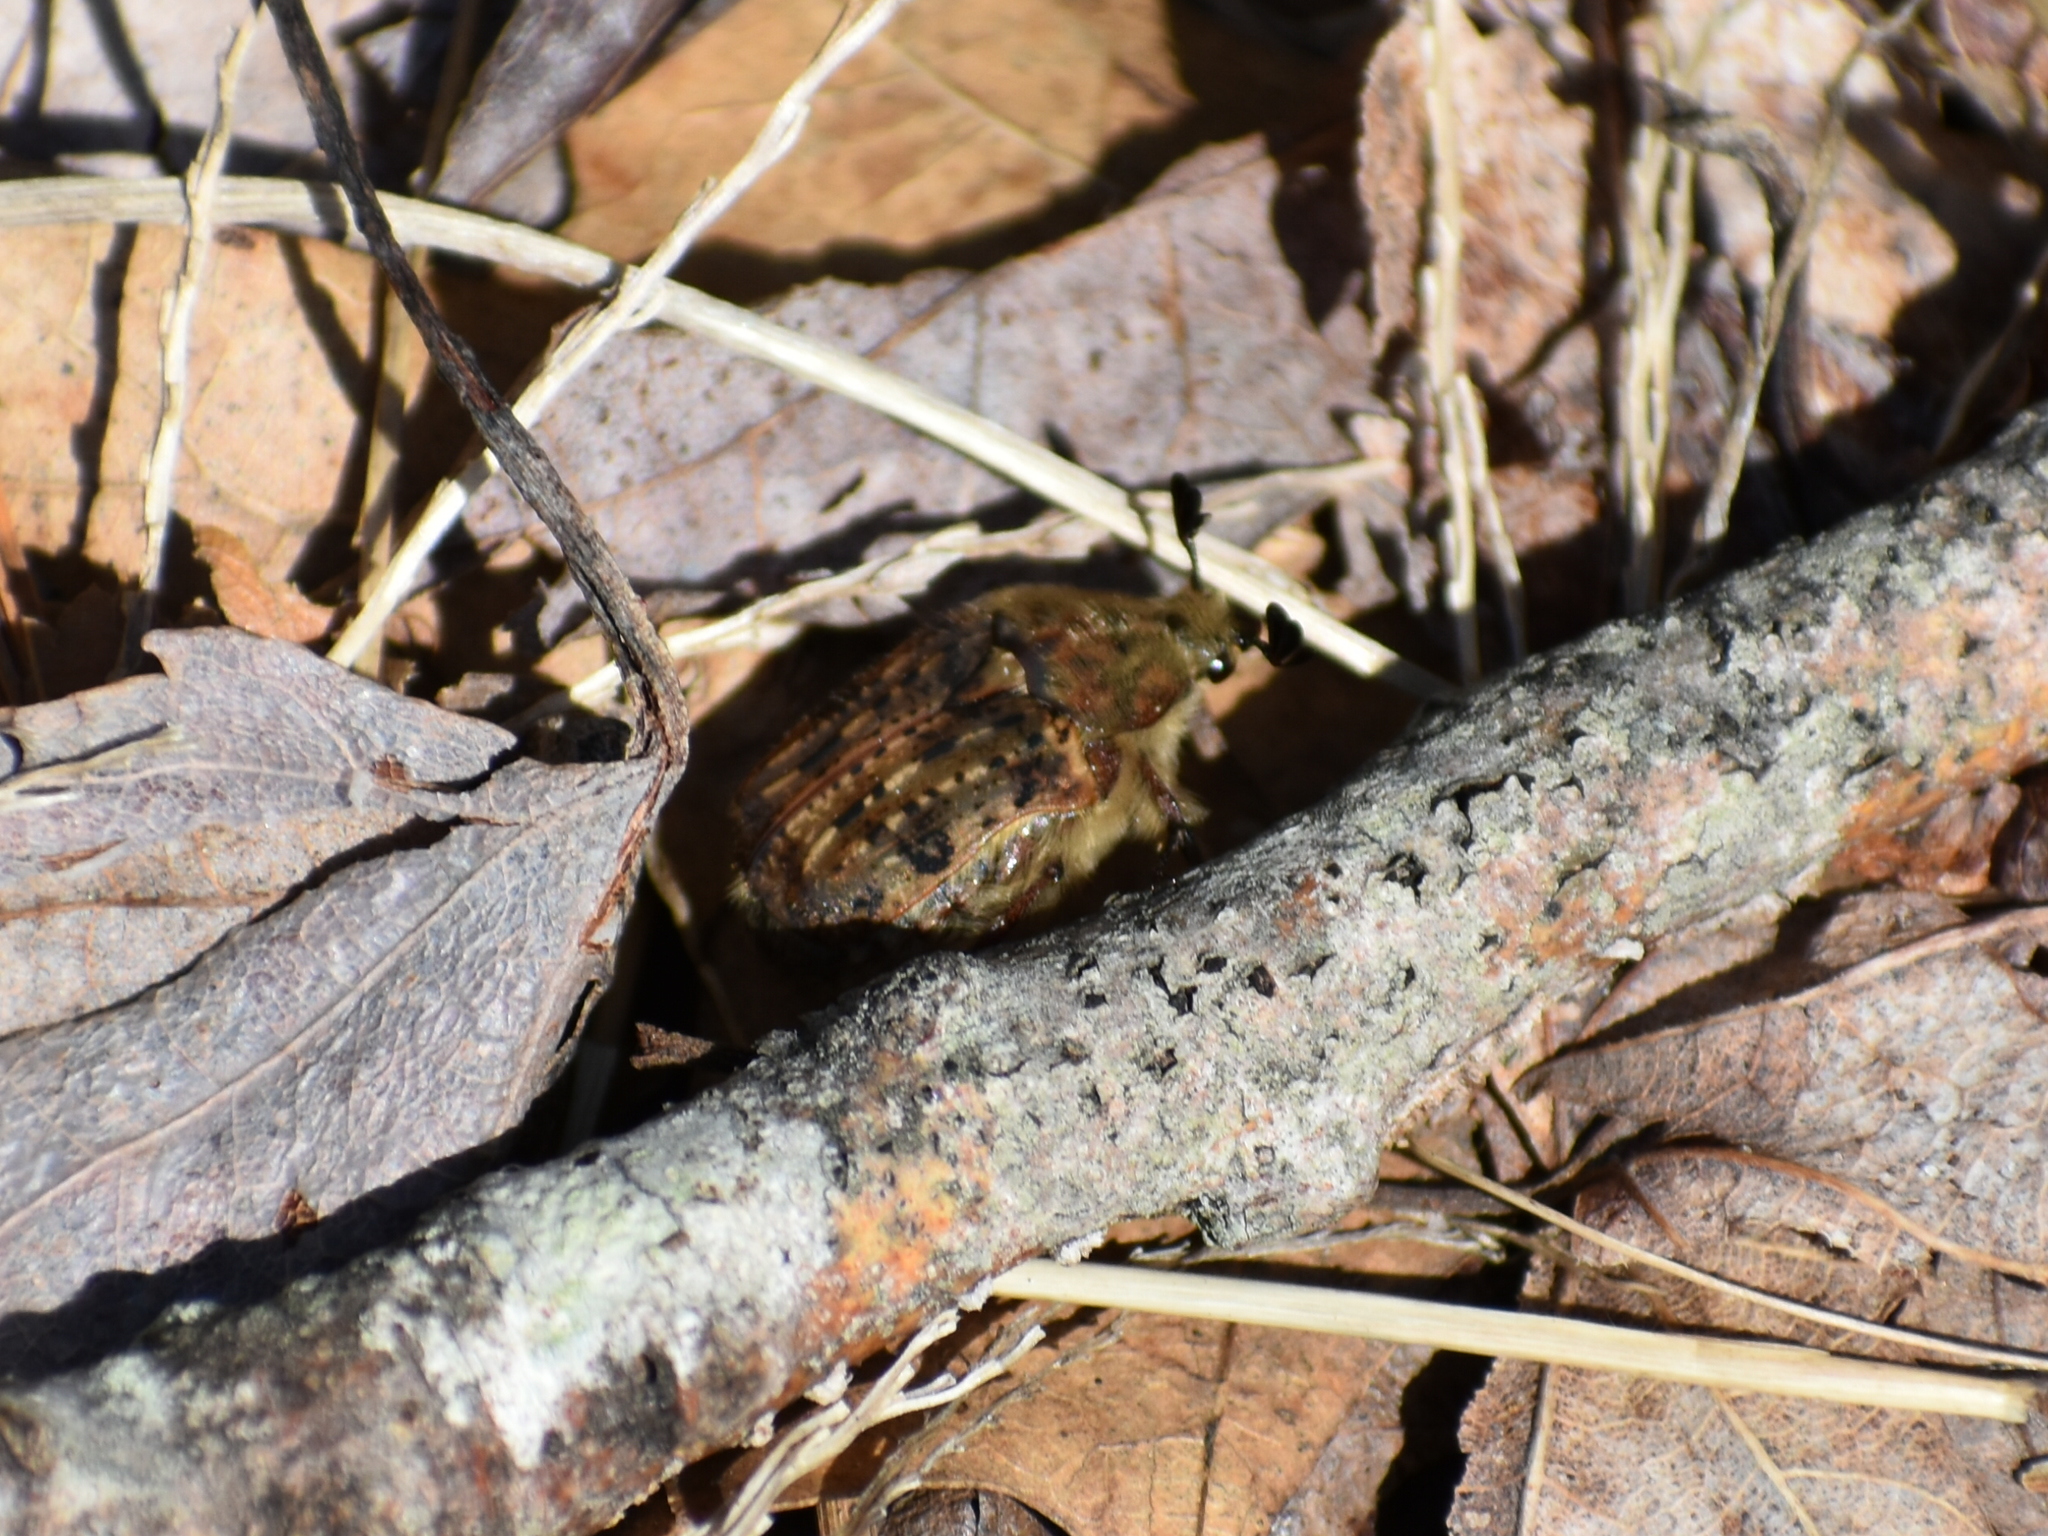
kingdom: Animalia
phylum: Arthropoda
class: Insecta
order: Coleoptera
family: Scarabaeidae
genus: Euphoria
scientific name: Euphoria inda
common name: Bumble flower beetle
